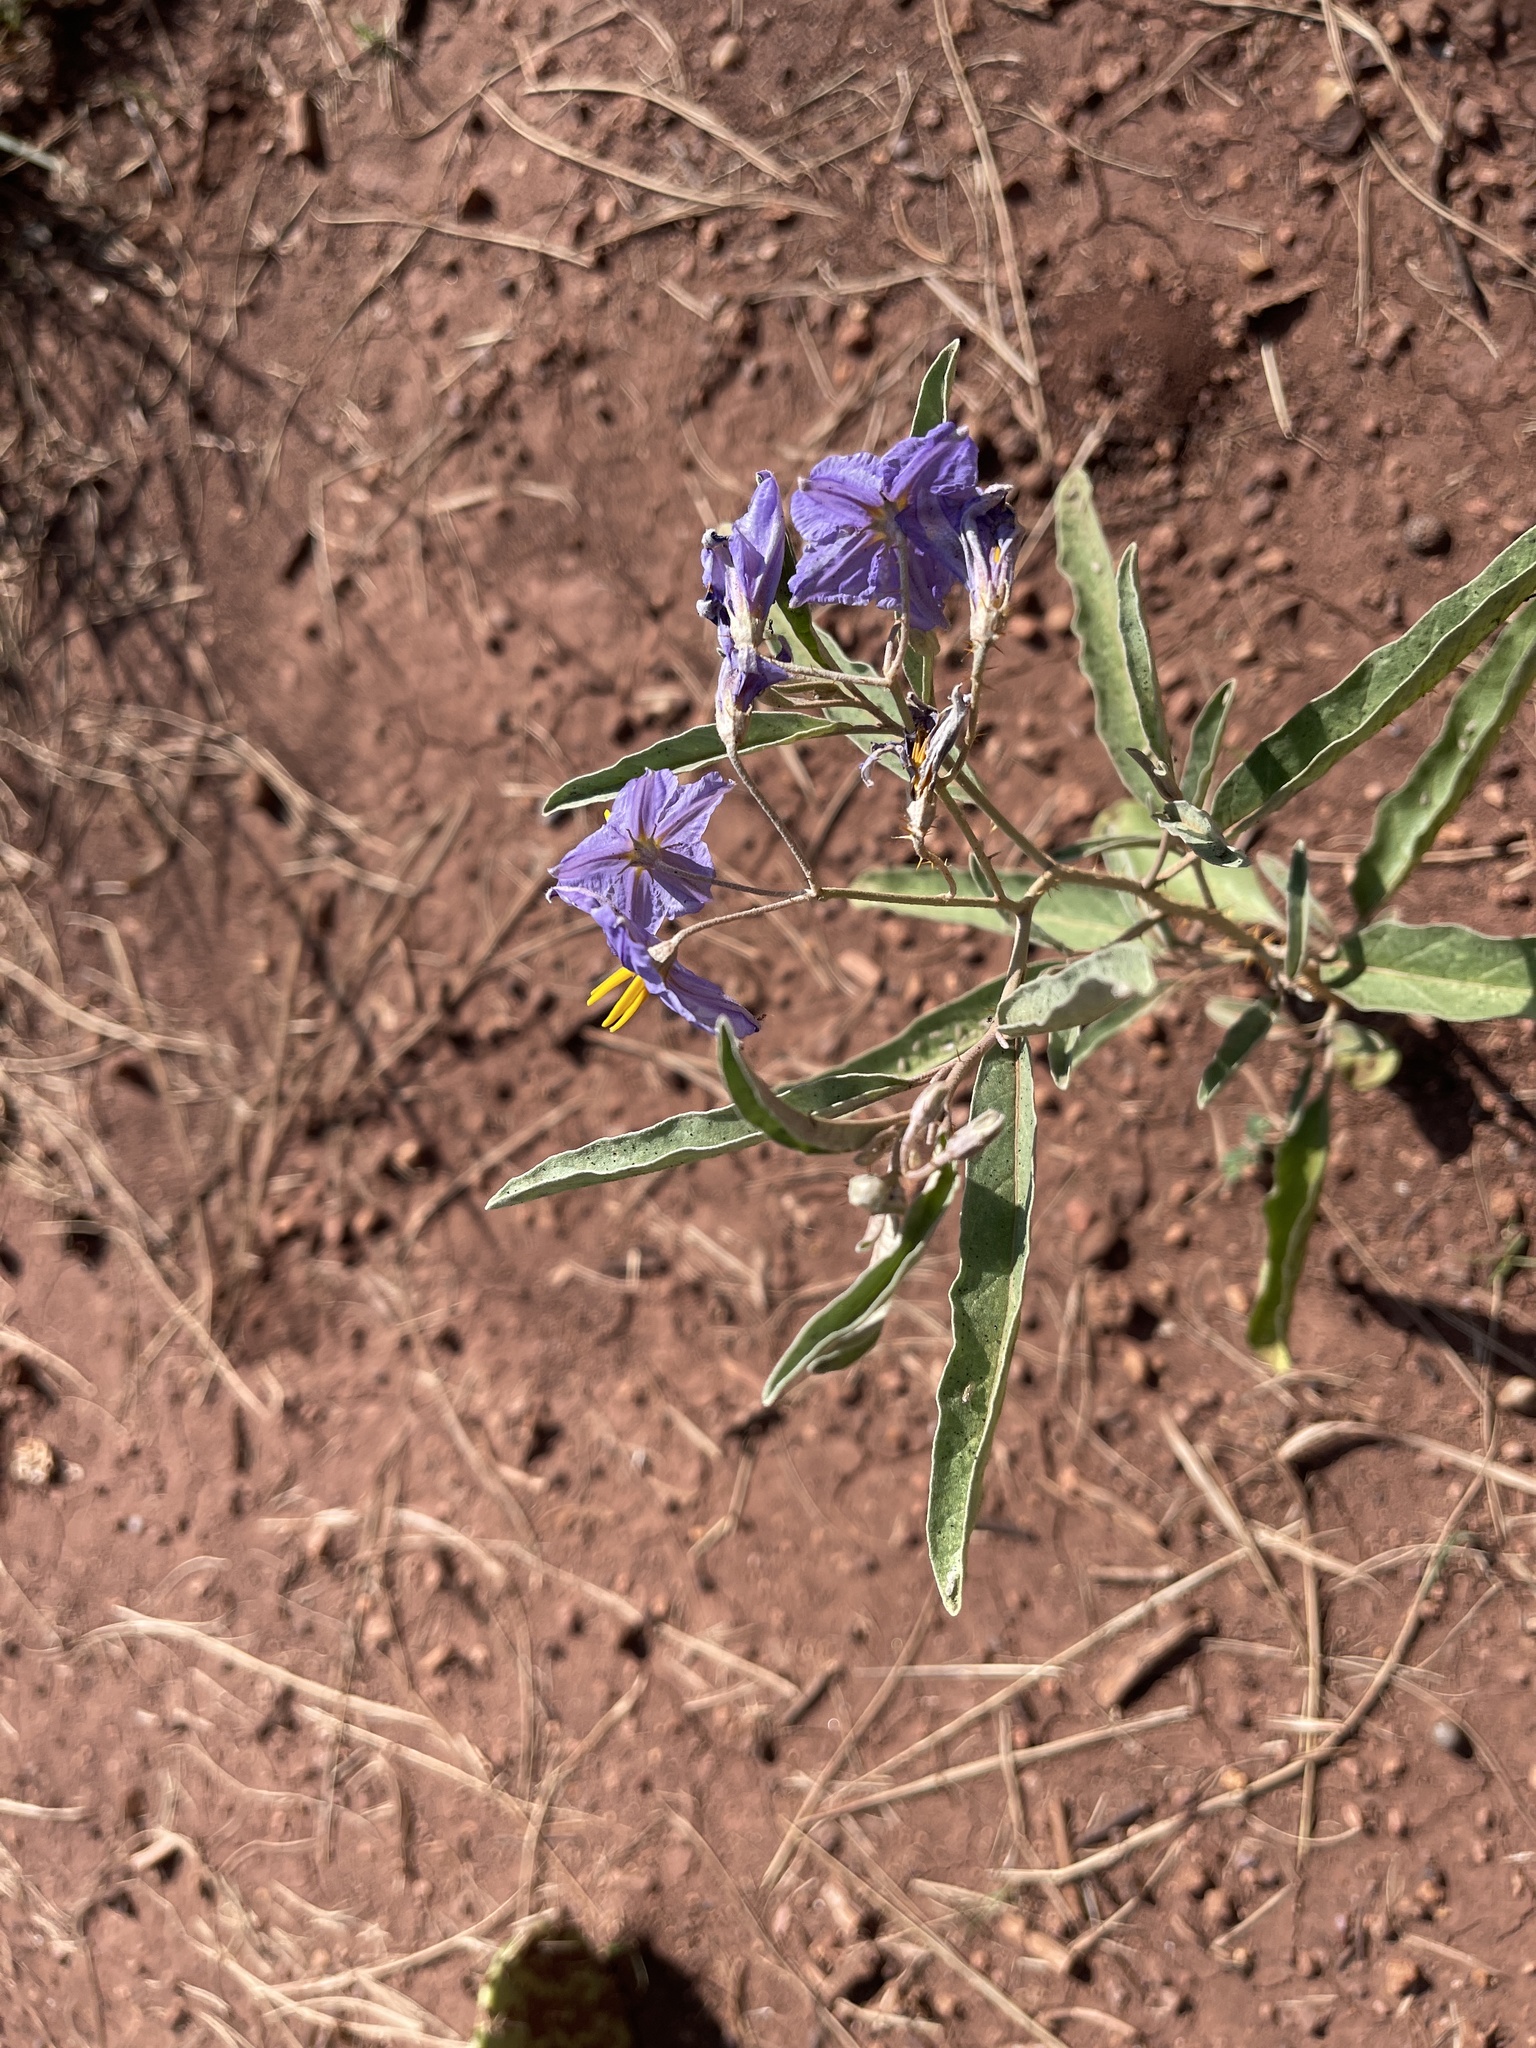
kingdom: Plantae
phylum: Tracheophyta
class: Magnoliopsida
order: Solanales
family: Solanaceae
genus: Solanum
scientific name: Solanum elaeagnifolium
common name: Silverleaf nightshade
